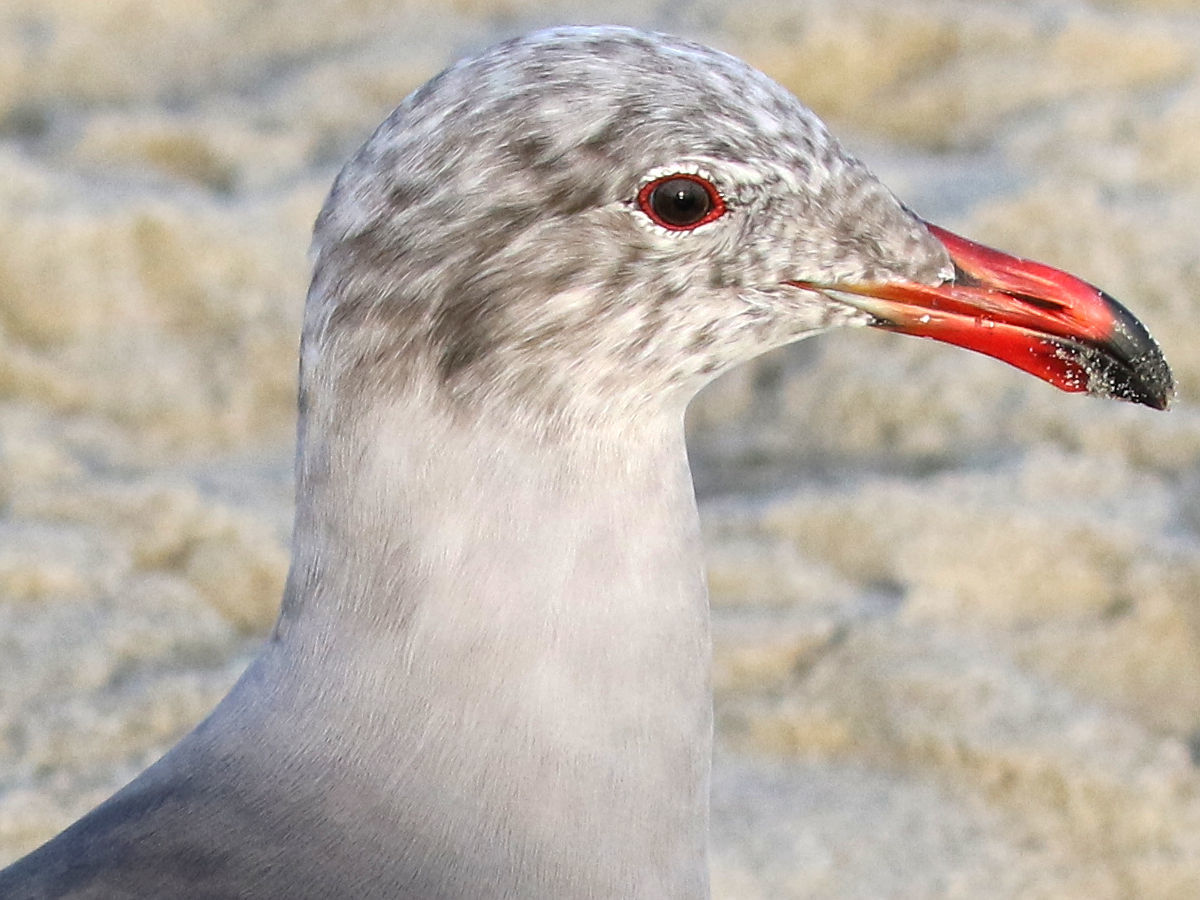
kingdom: Animalia
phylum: Chordata
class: Aves
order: Charadriiformes
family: Laridae
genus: Larus
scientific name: Larus heermanni
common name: Heermann's gull
